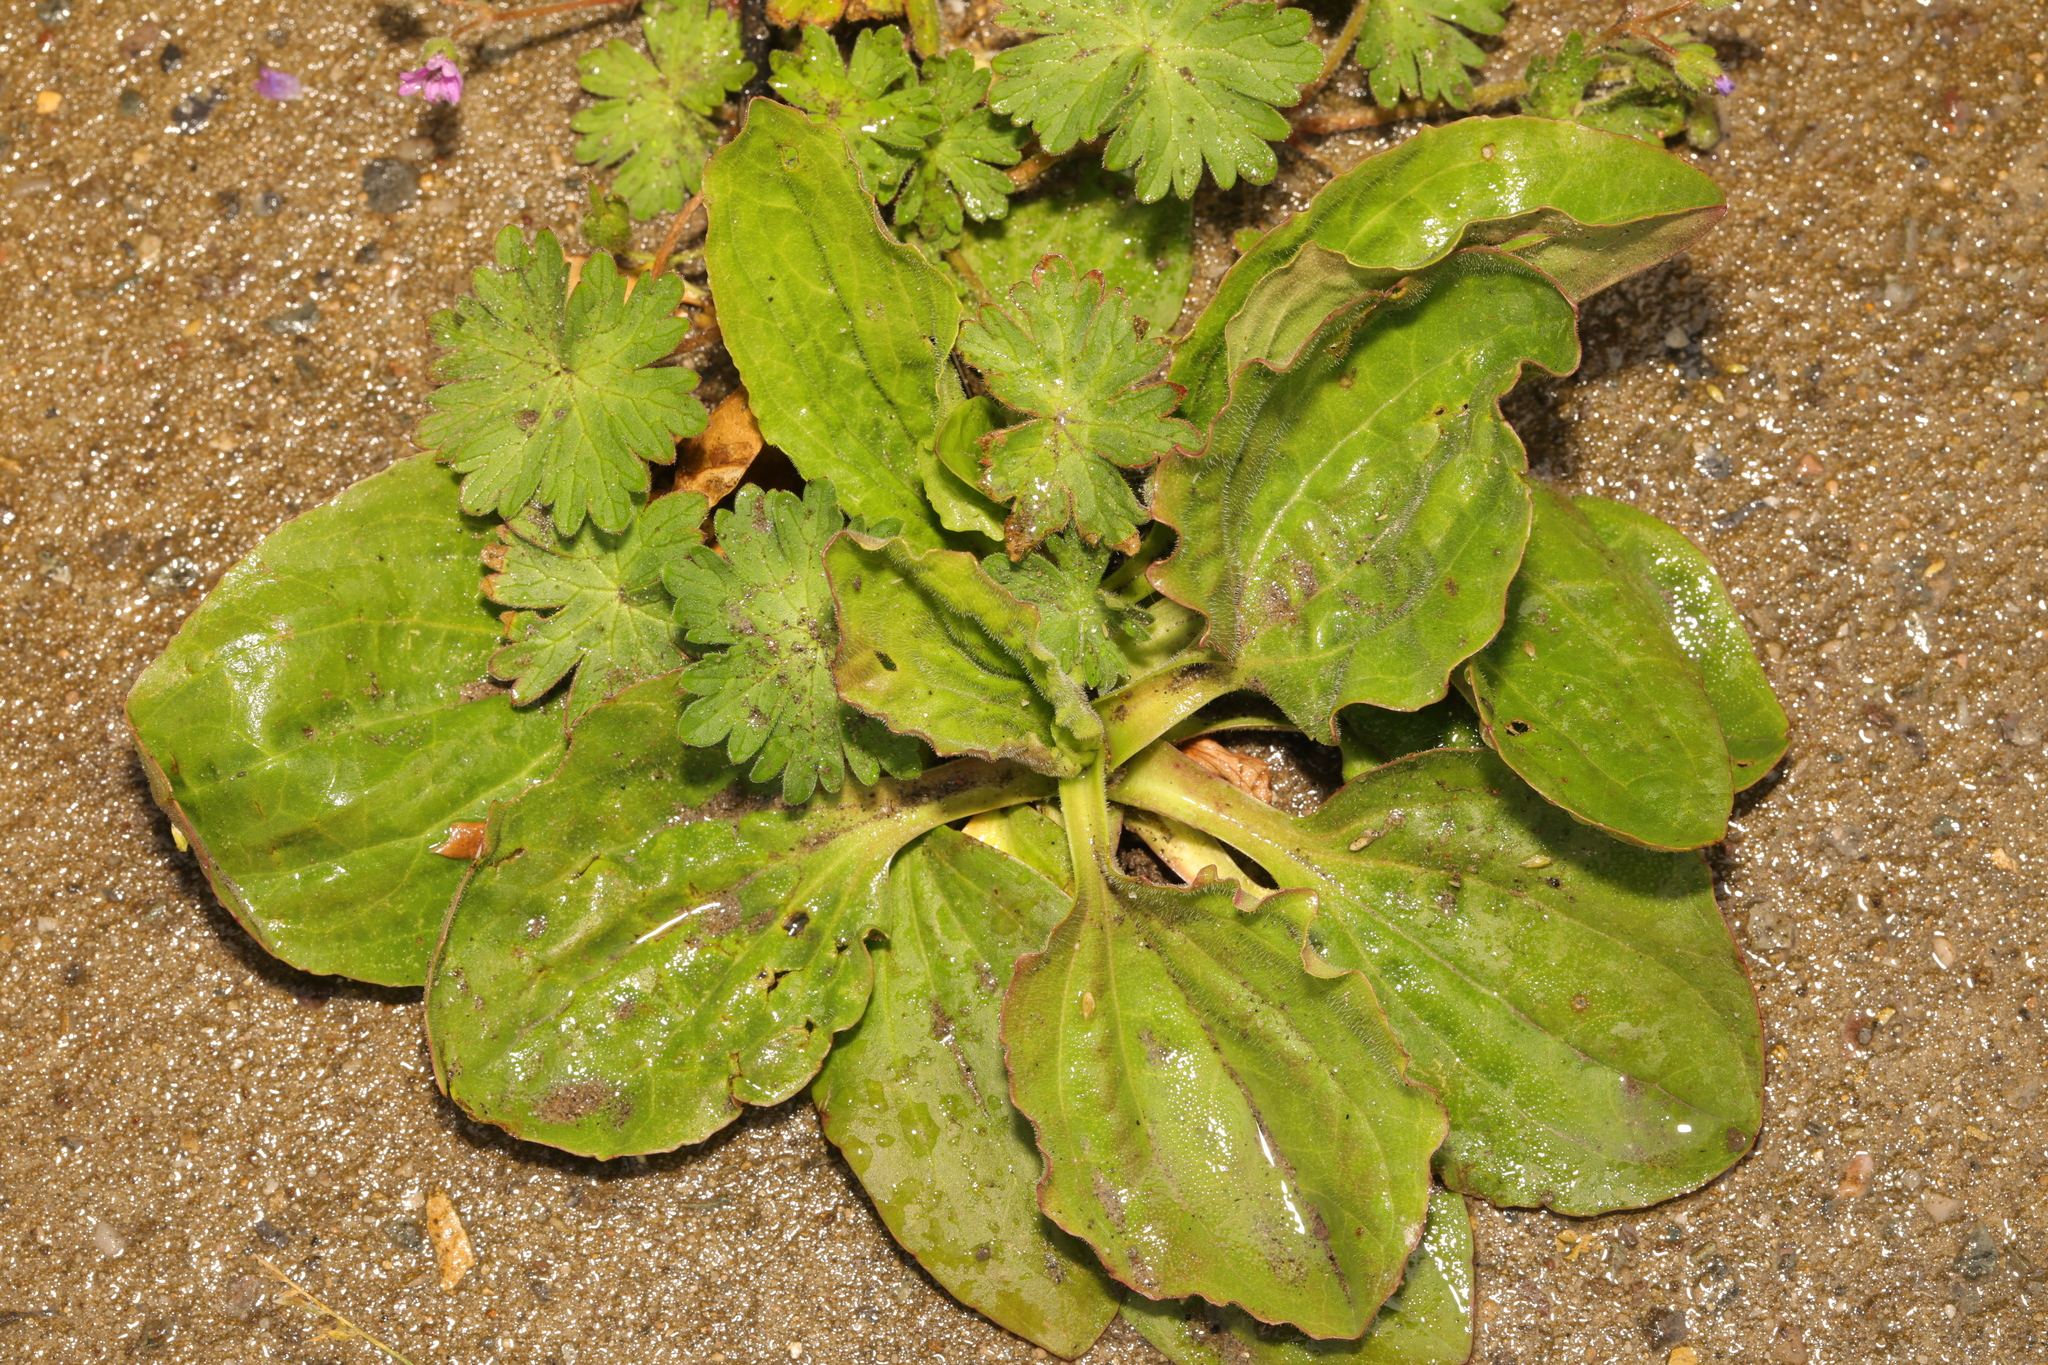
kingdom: Plantae
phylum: Tracheophyta
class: Magnoliopsida
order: Lamiales
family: Plantaginaceae
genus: Plantago
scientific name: Plantago major
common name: Common plantain
